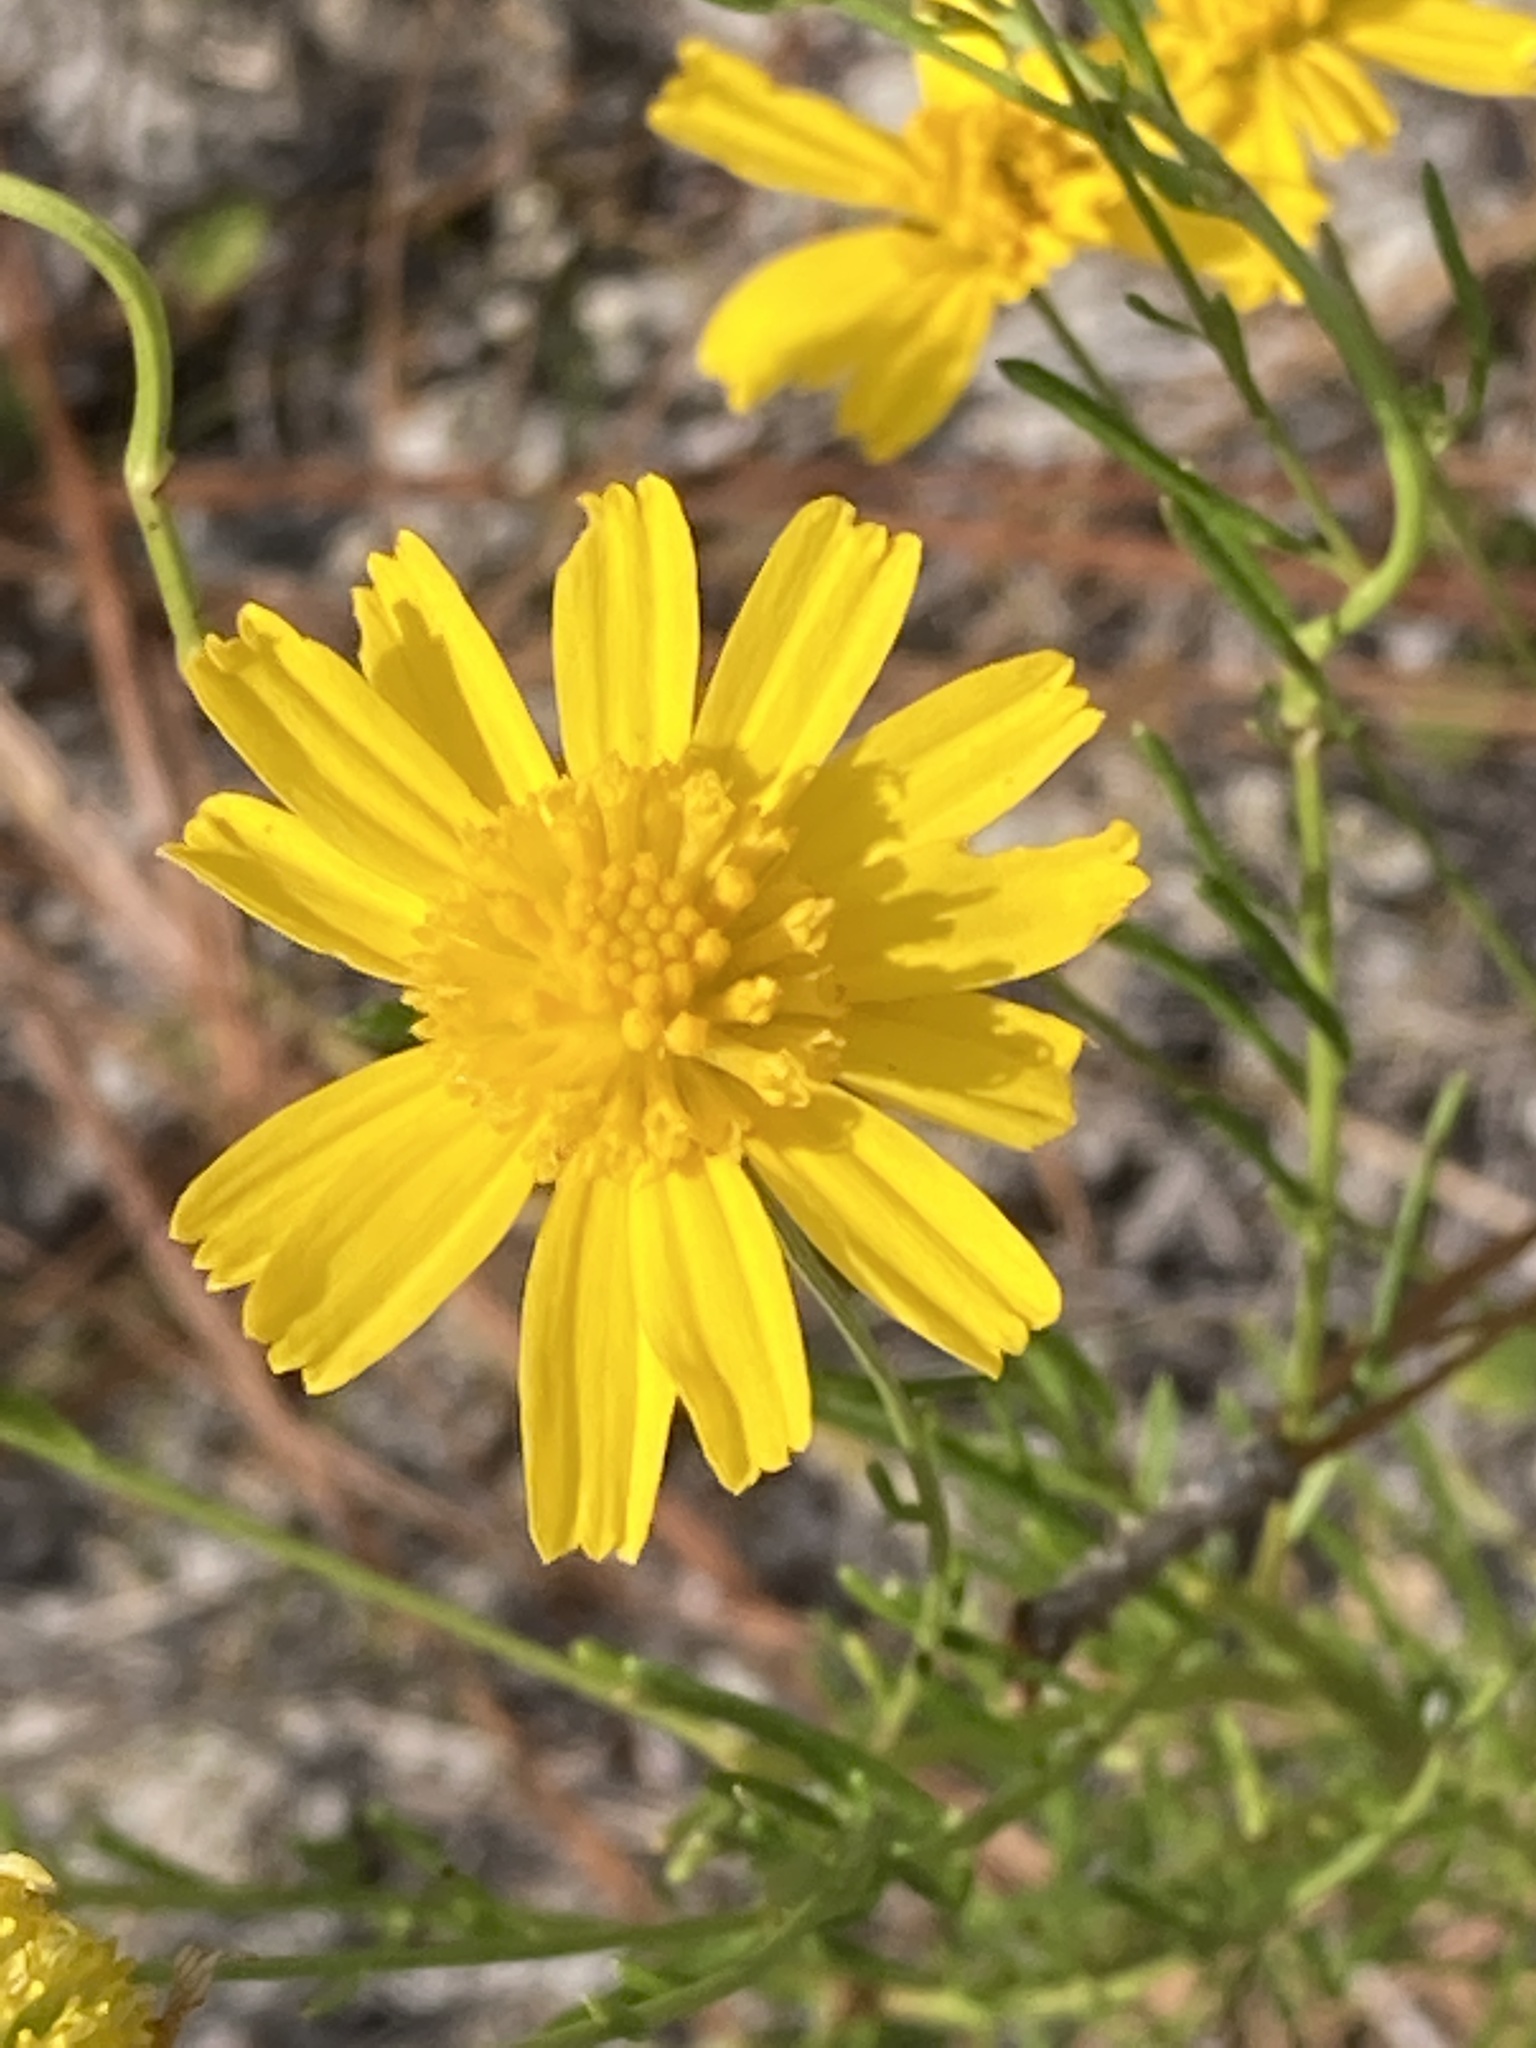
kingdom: Plantae
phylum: Tracheophyta
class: Magnoliopsida
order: Asterales
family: Asteraceae
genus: Balduina
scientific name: Balduina angustifolia
